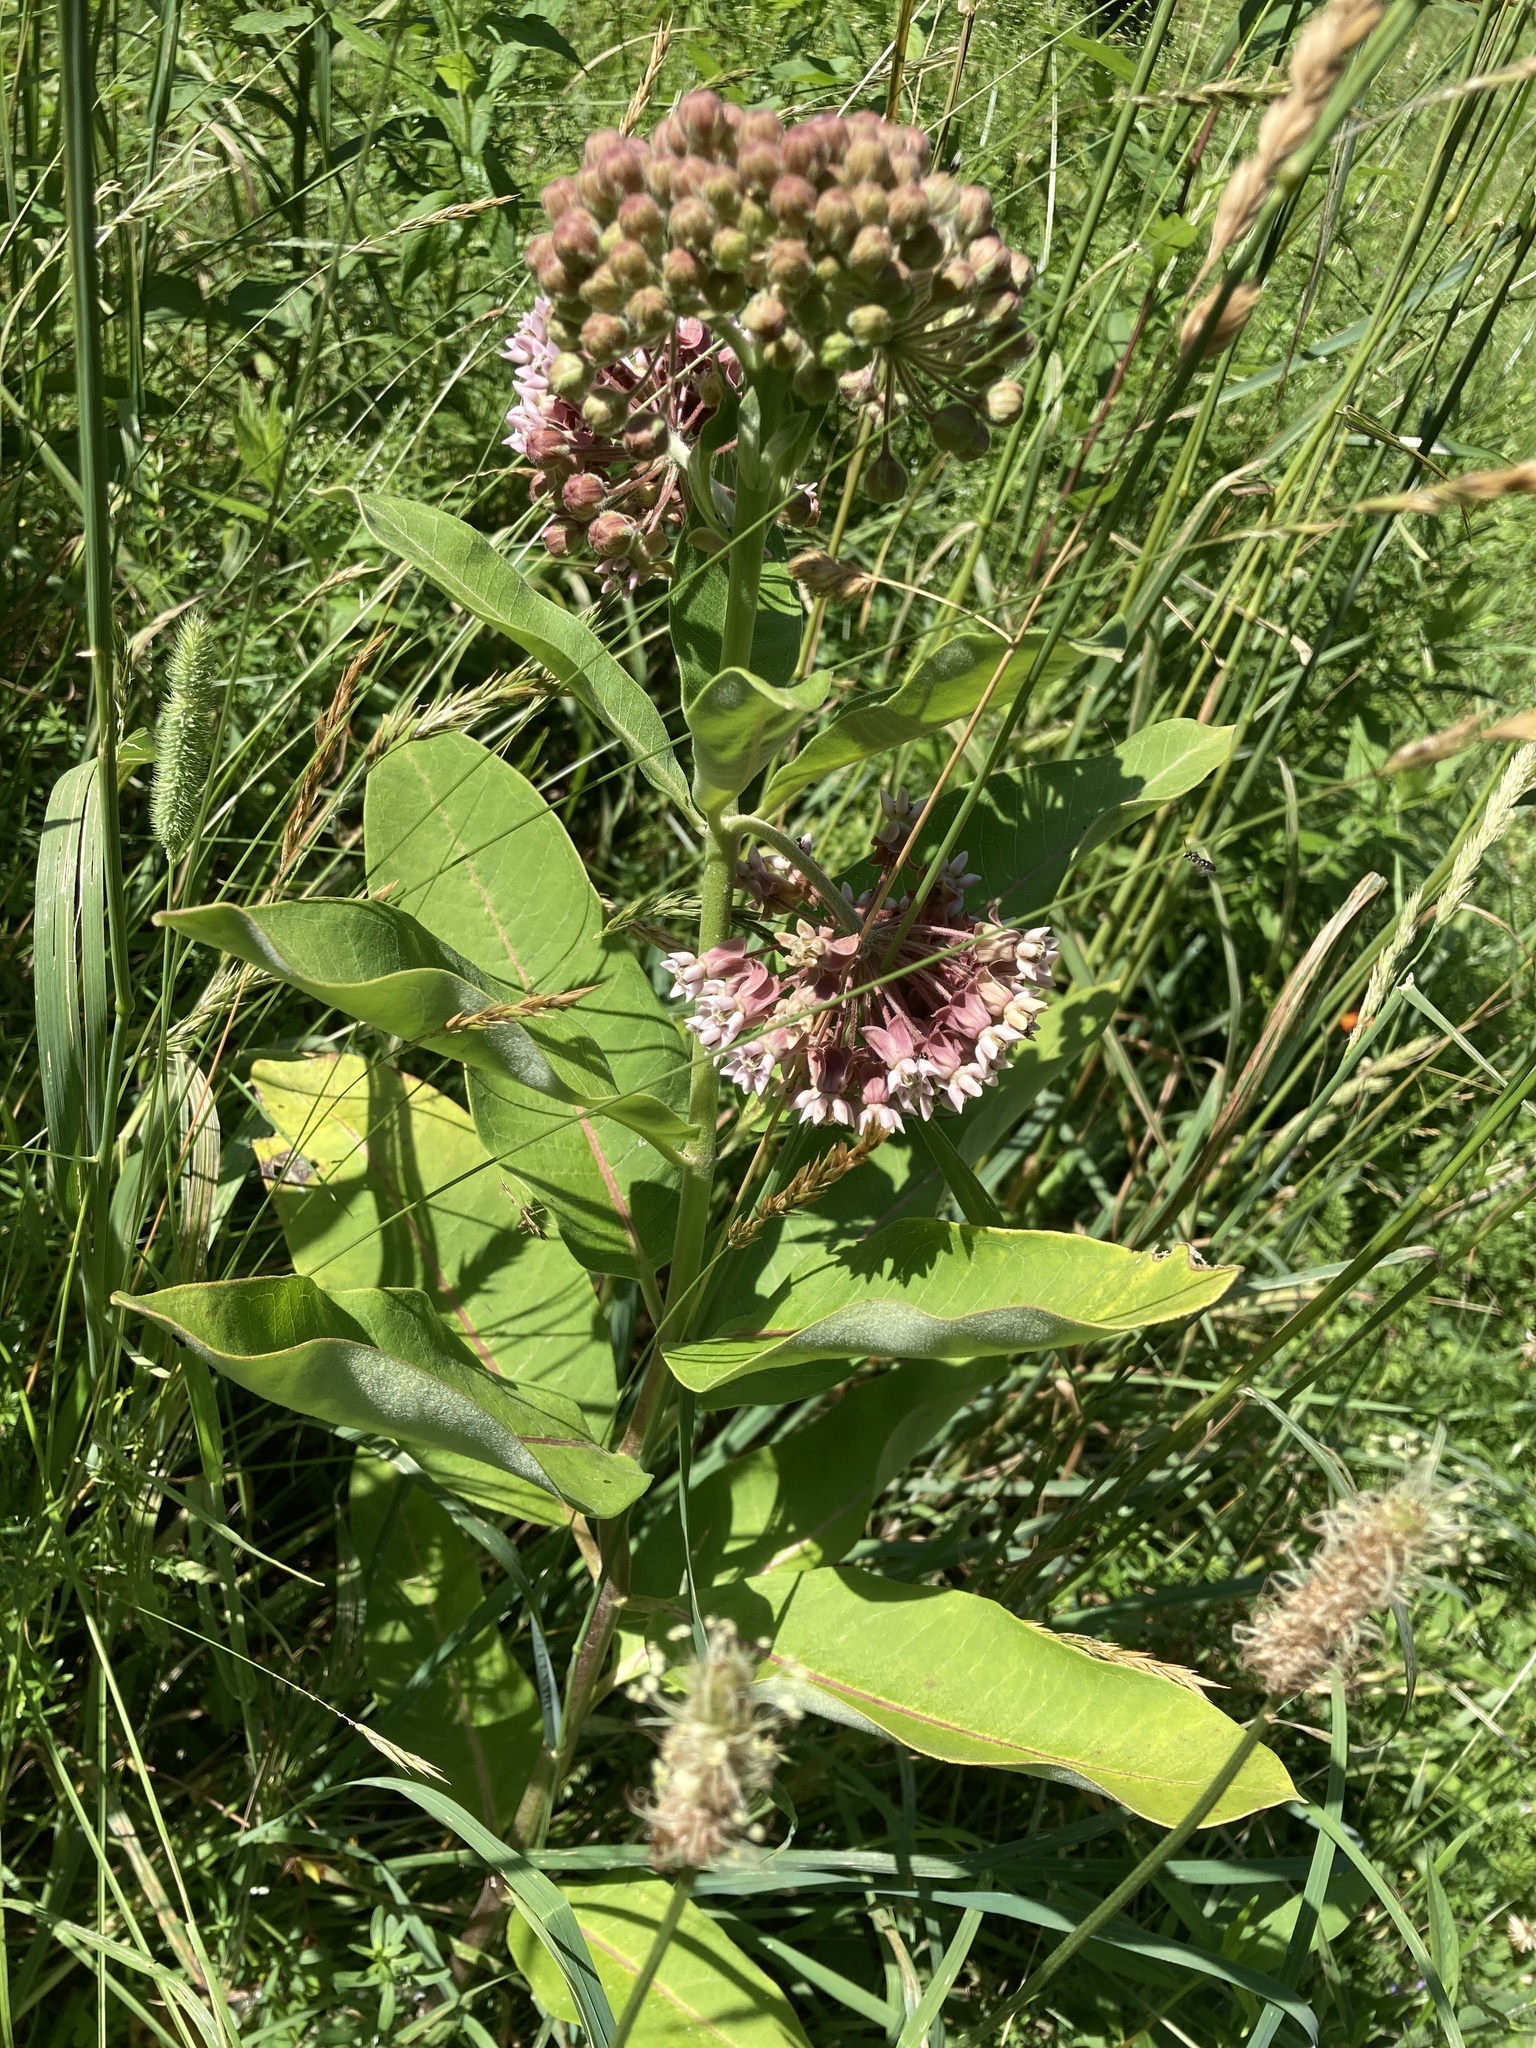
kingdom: Plantae
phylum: Tracheophyta
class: Magnoliopsida
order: Gentianales
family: Apocynaceae
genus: Asclepias
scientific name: Asclepias syriaca
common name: Common milkweed
